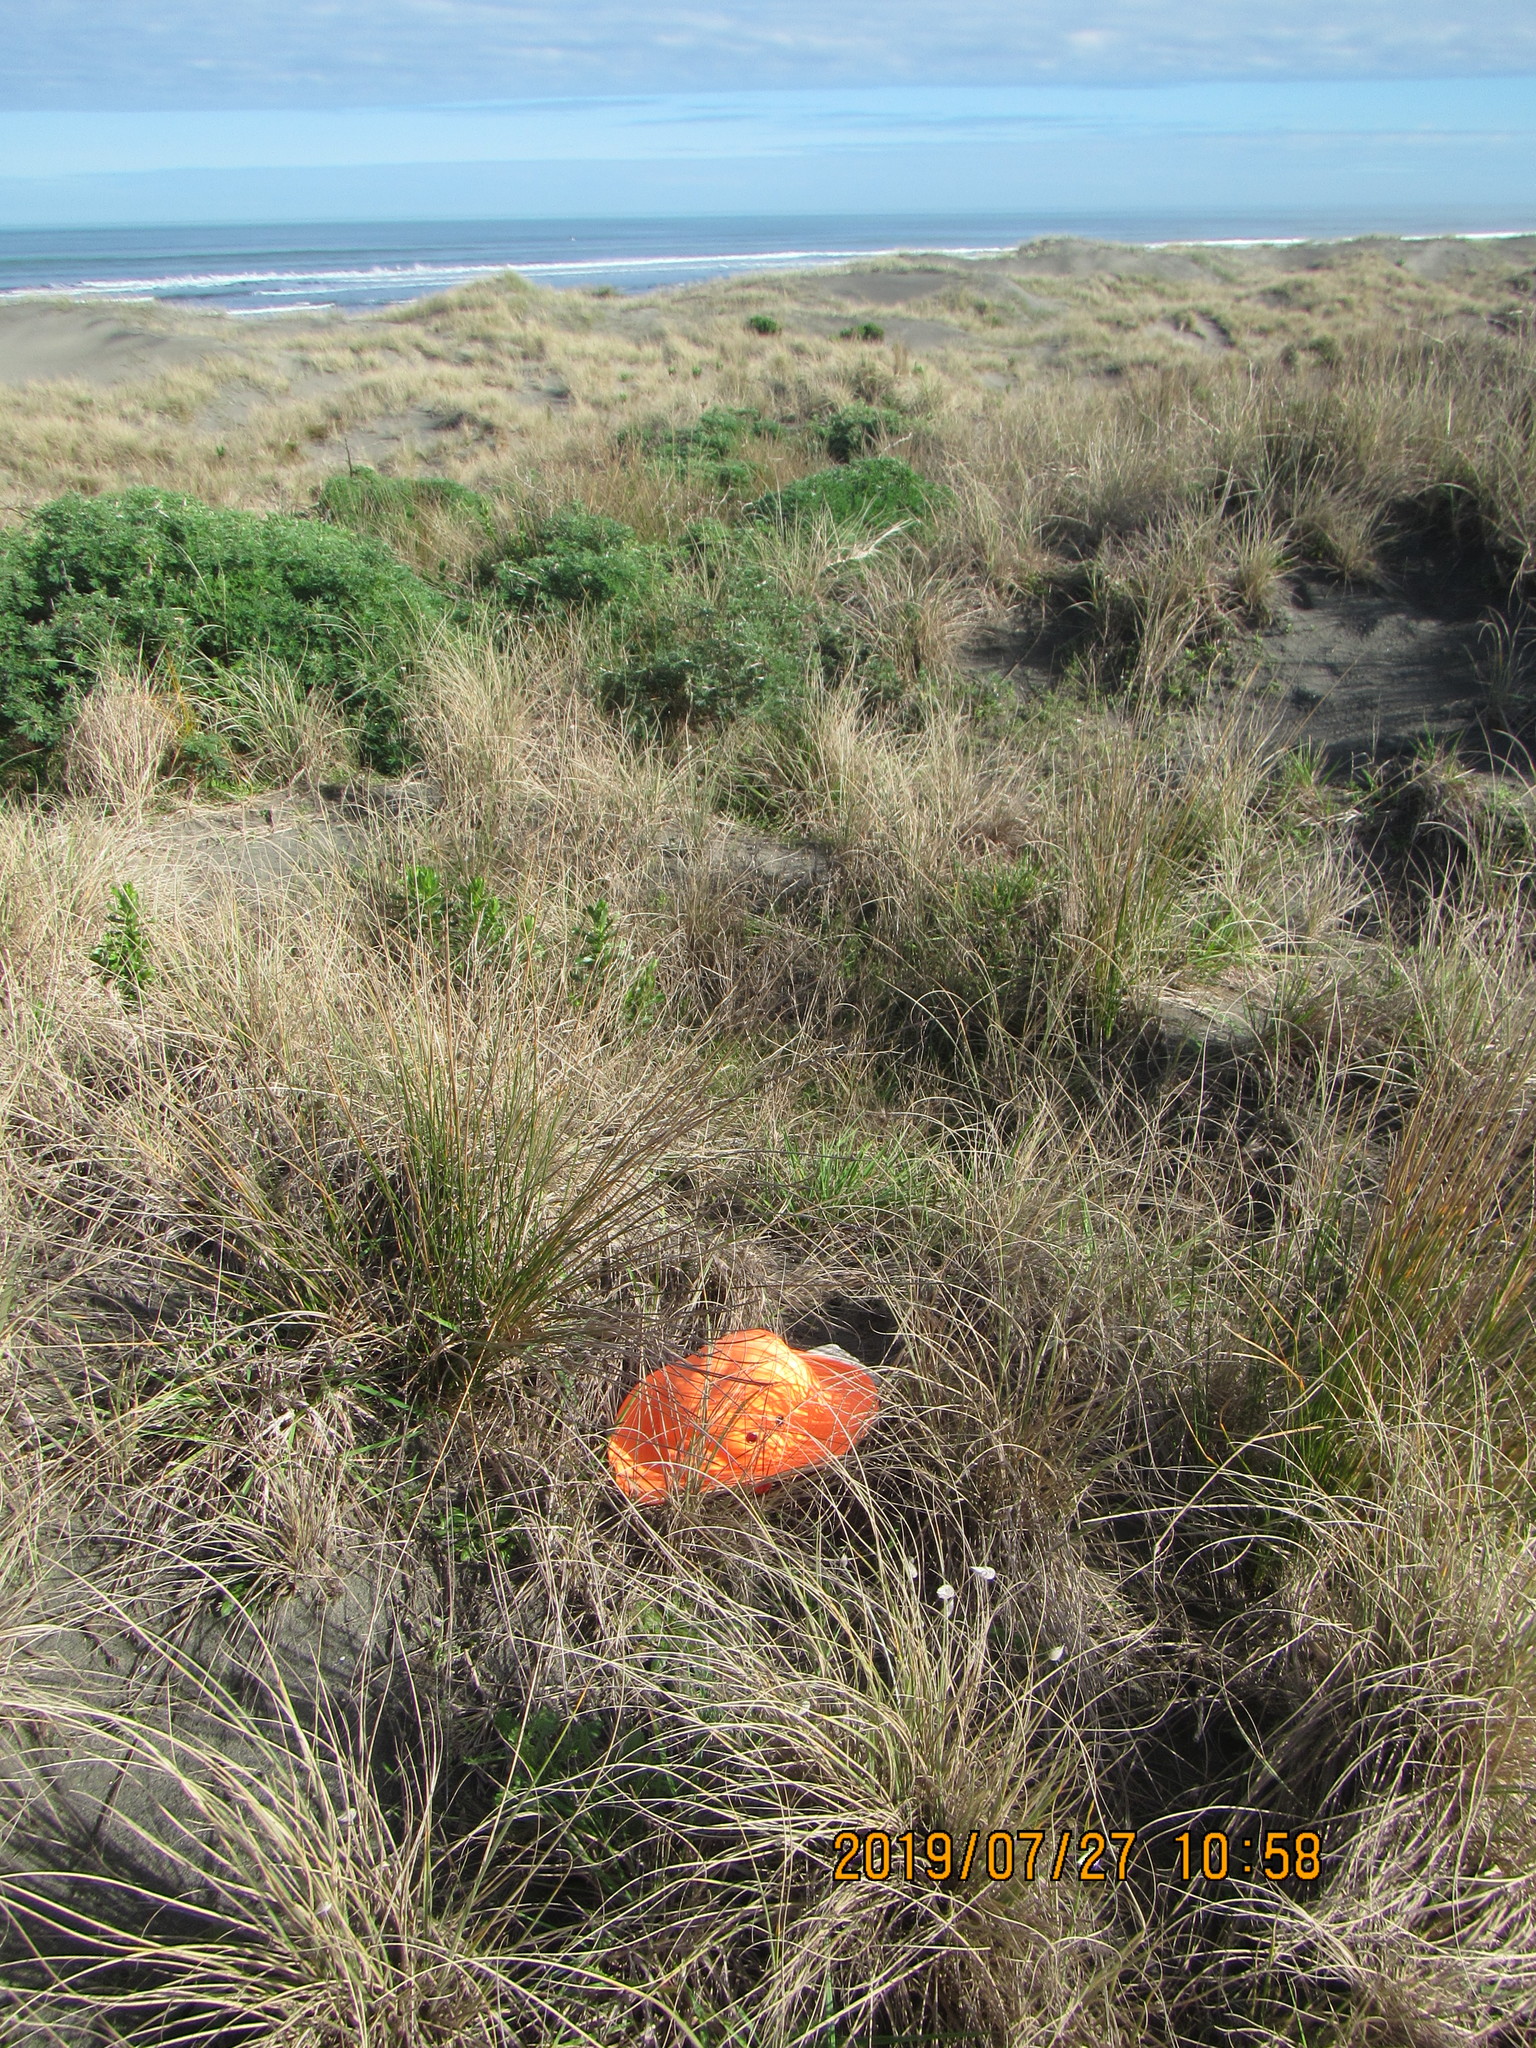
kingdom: Animalia
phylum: Arthropoda
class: Insecta
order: Dermaptera
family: Forficulidae
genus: Forficula
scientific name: Forficula
